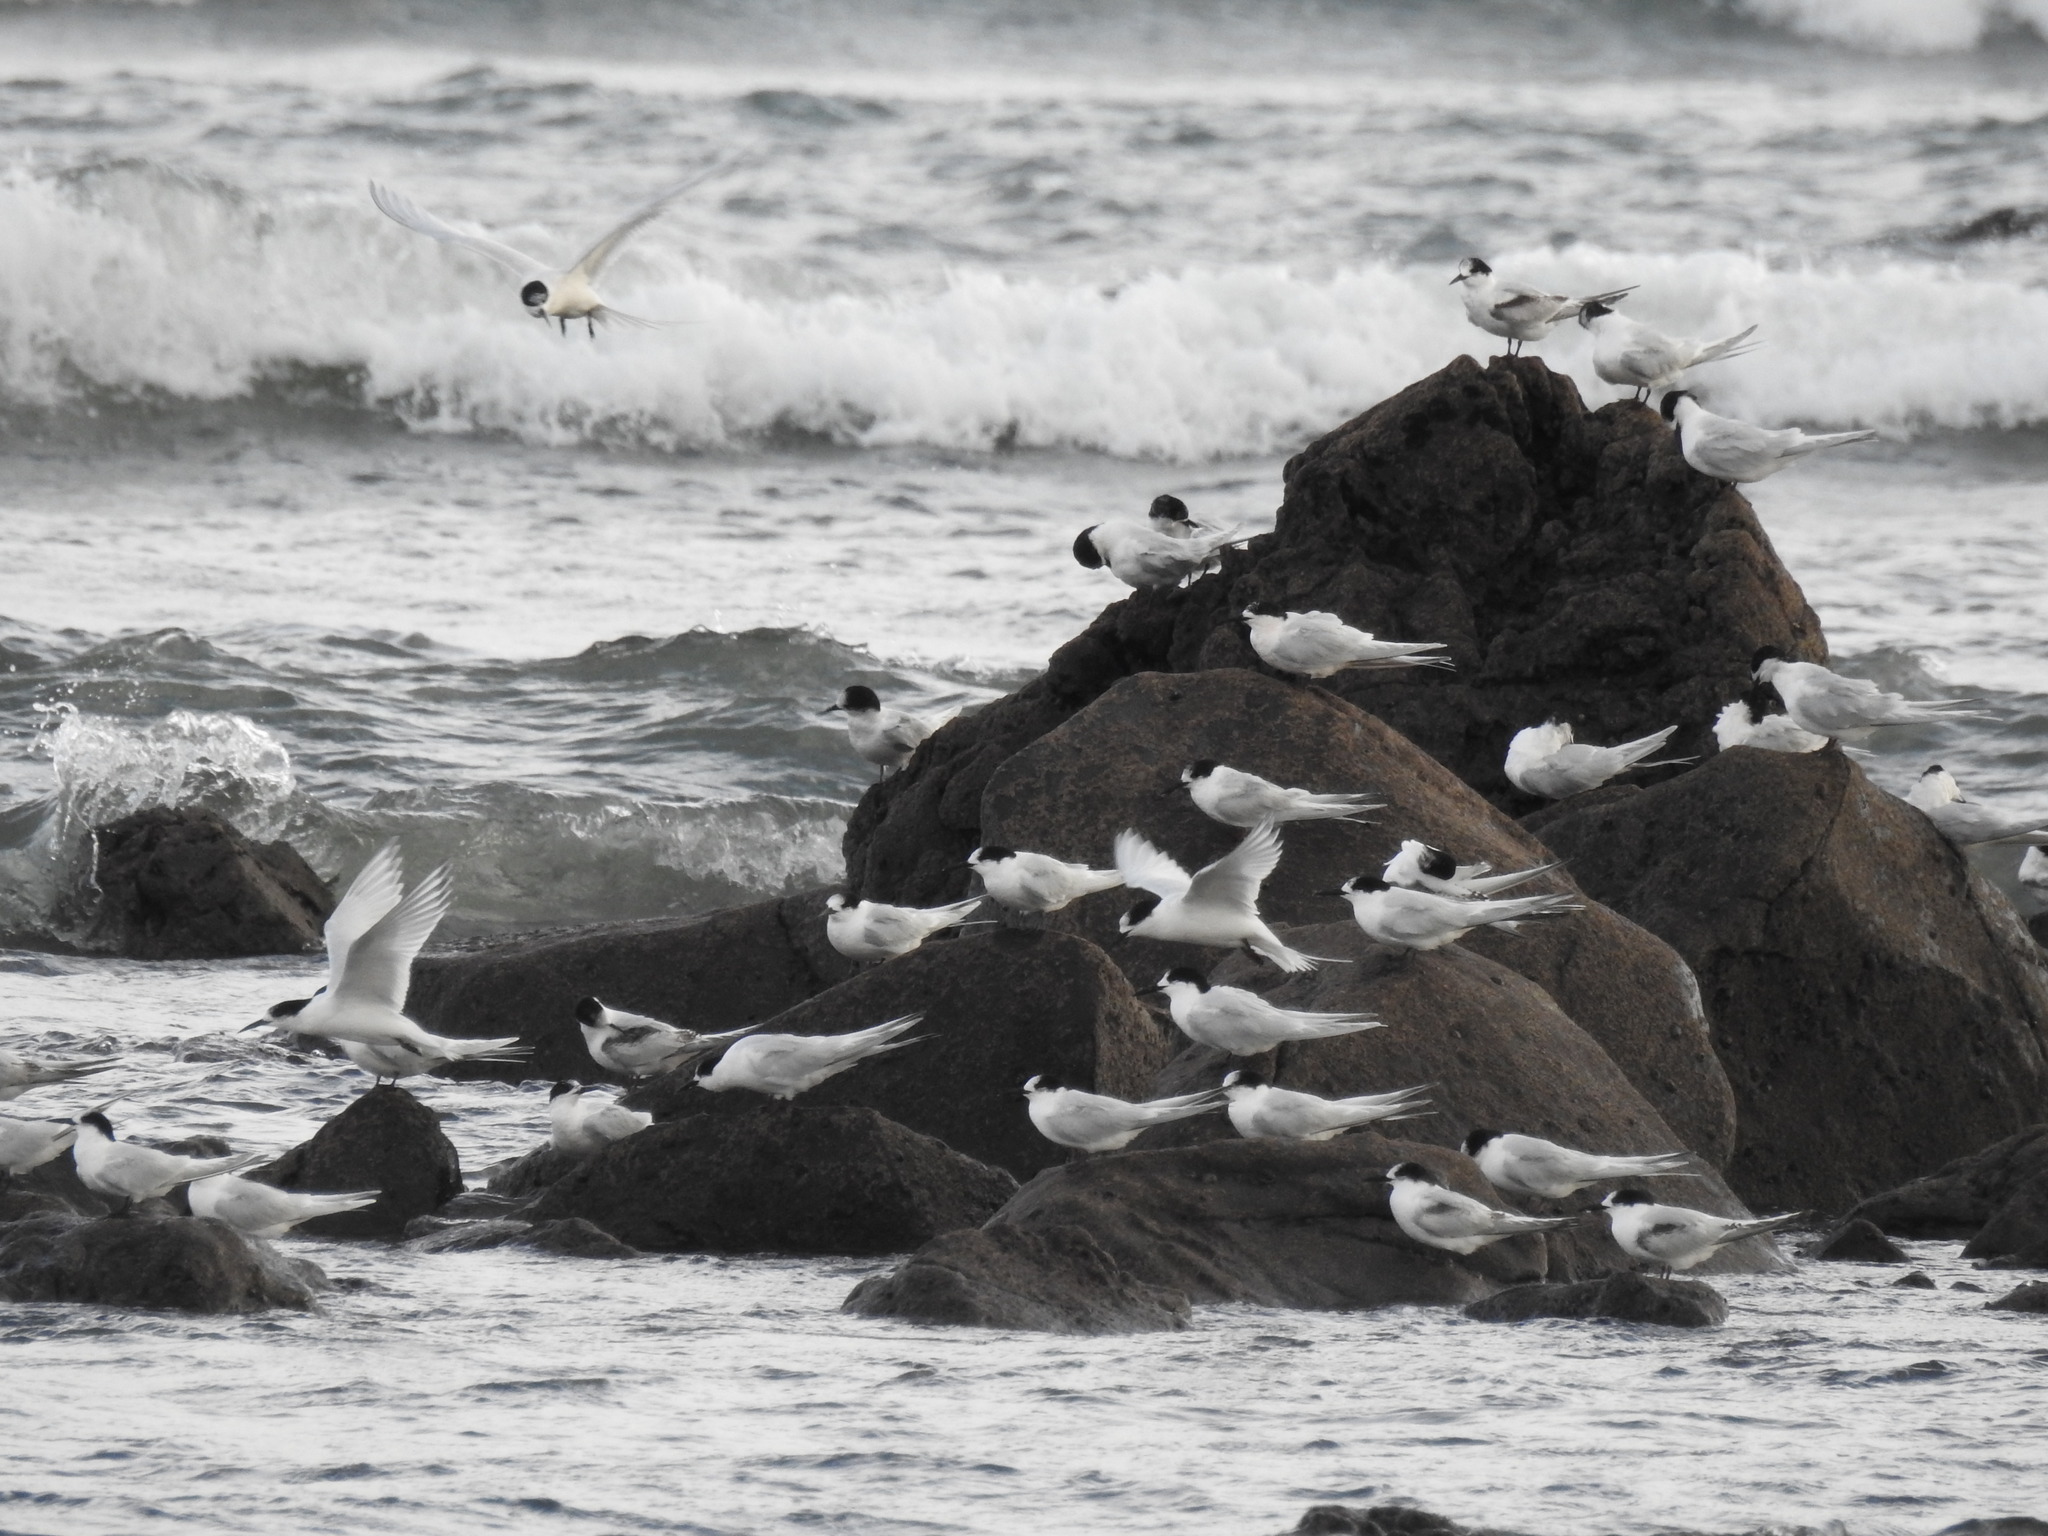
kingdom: Animalia
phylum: Chordata
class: Aves
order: Charadriiformes
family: Laridae
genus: Sterna
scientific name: Sterna striata
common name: White-fronted tern
